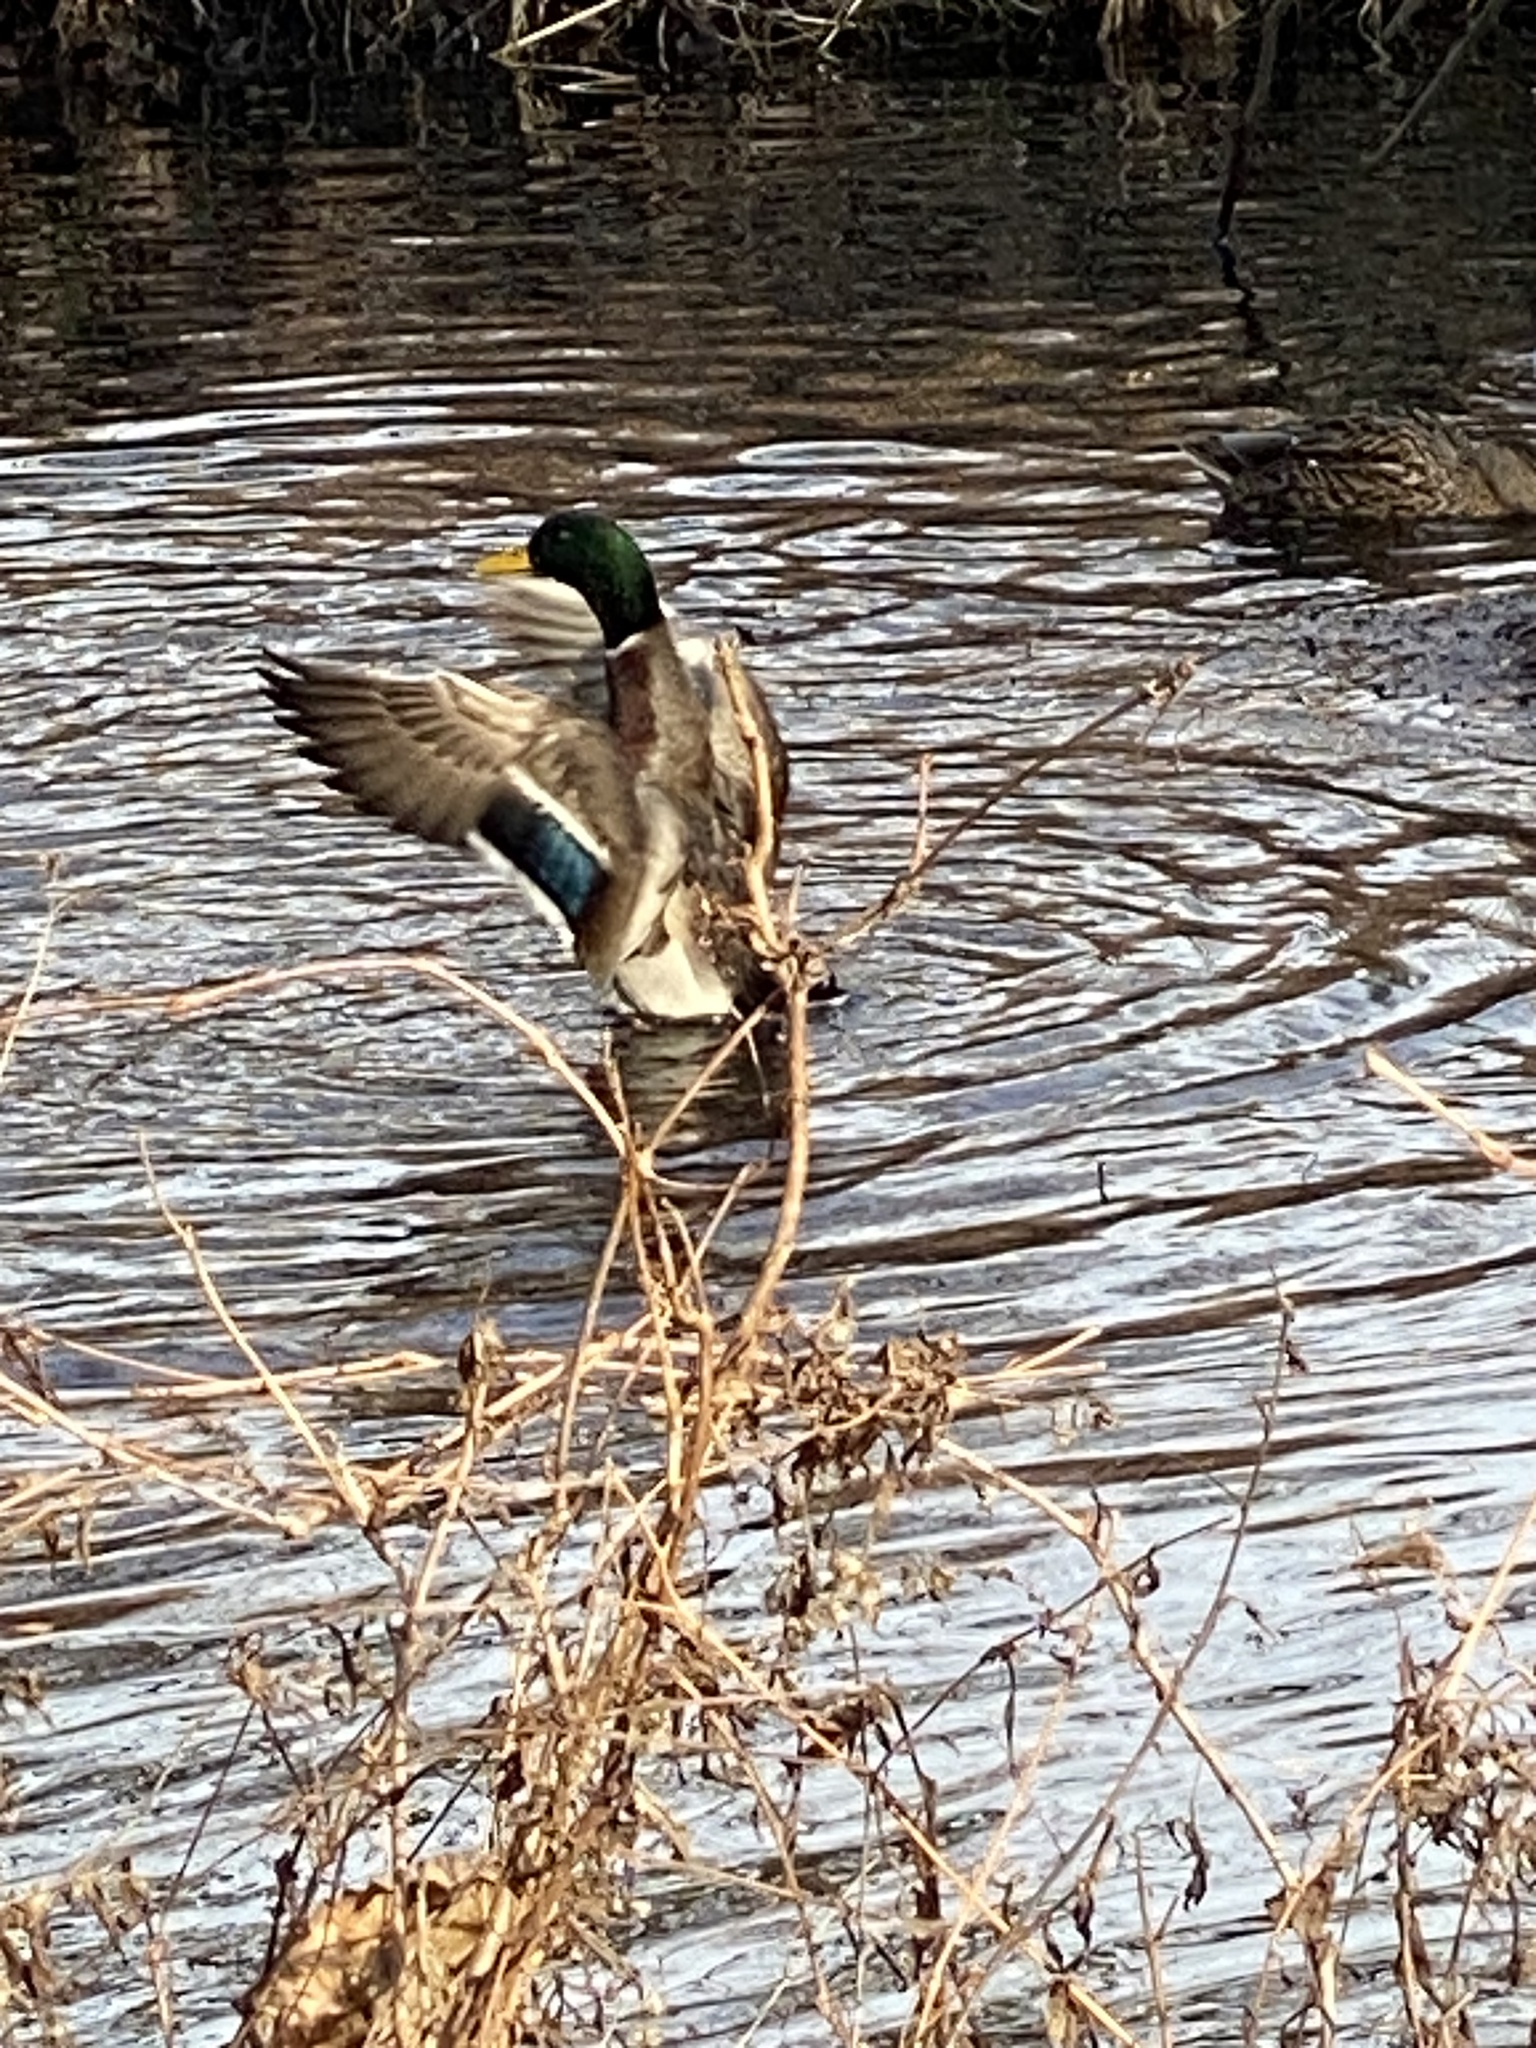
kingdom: Animalia
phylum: Chordata
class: Aves
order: Anseriformes
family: Anatidae
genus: Anas
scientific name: Anas platyrhynchos
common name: Mallard
